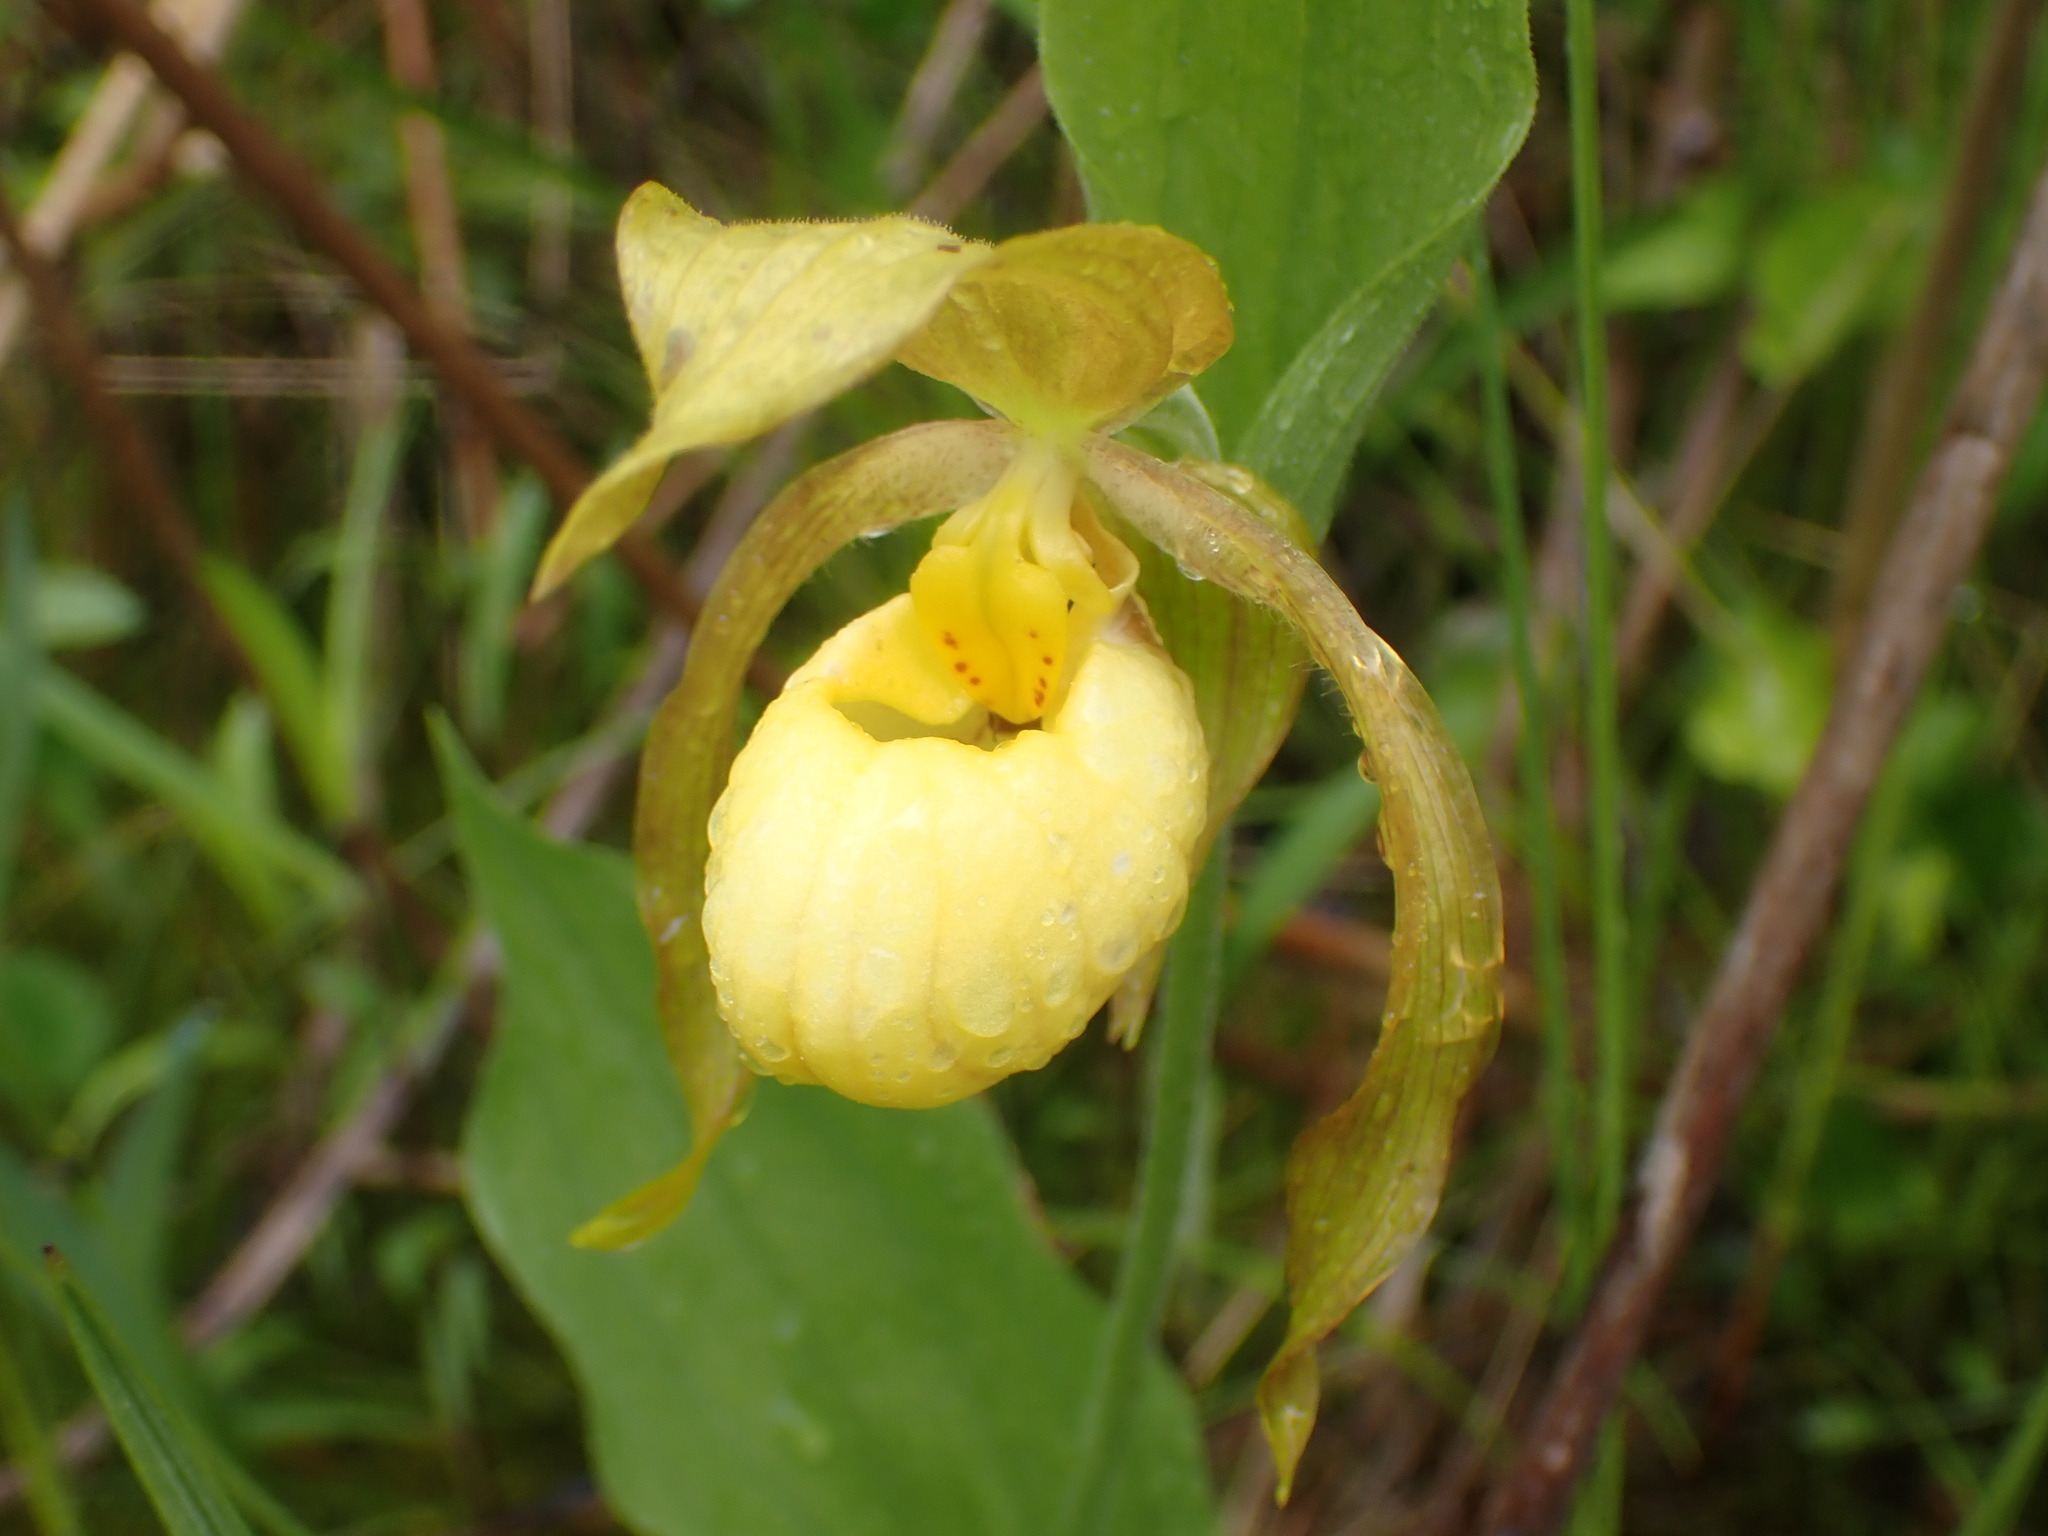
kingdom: Plantae
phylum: Tracheophyta
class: Liliopsida
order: Asparagales
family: Orchidaceae
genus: Cypripedium
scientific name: Cypripedium parviflorum
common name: American yellow lady's-slipper
